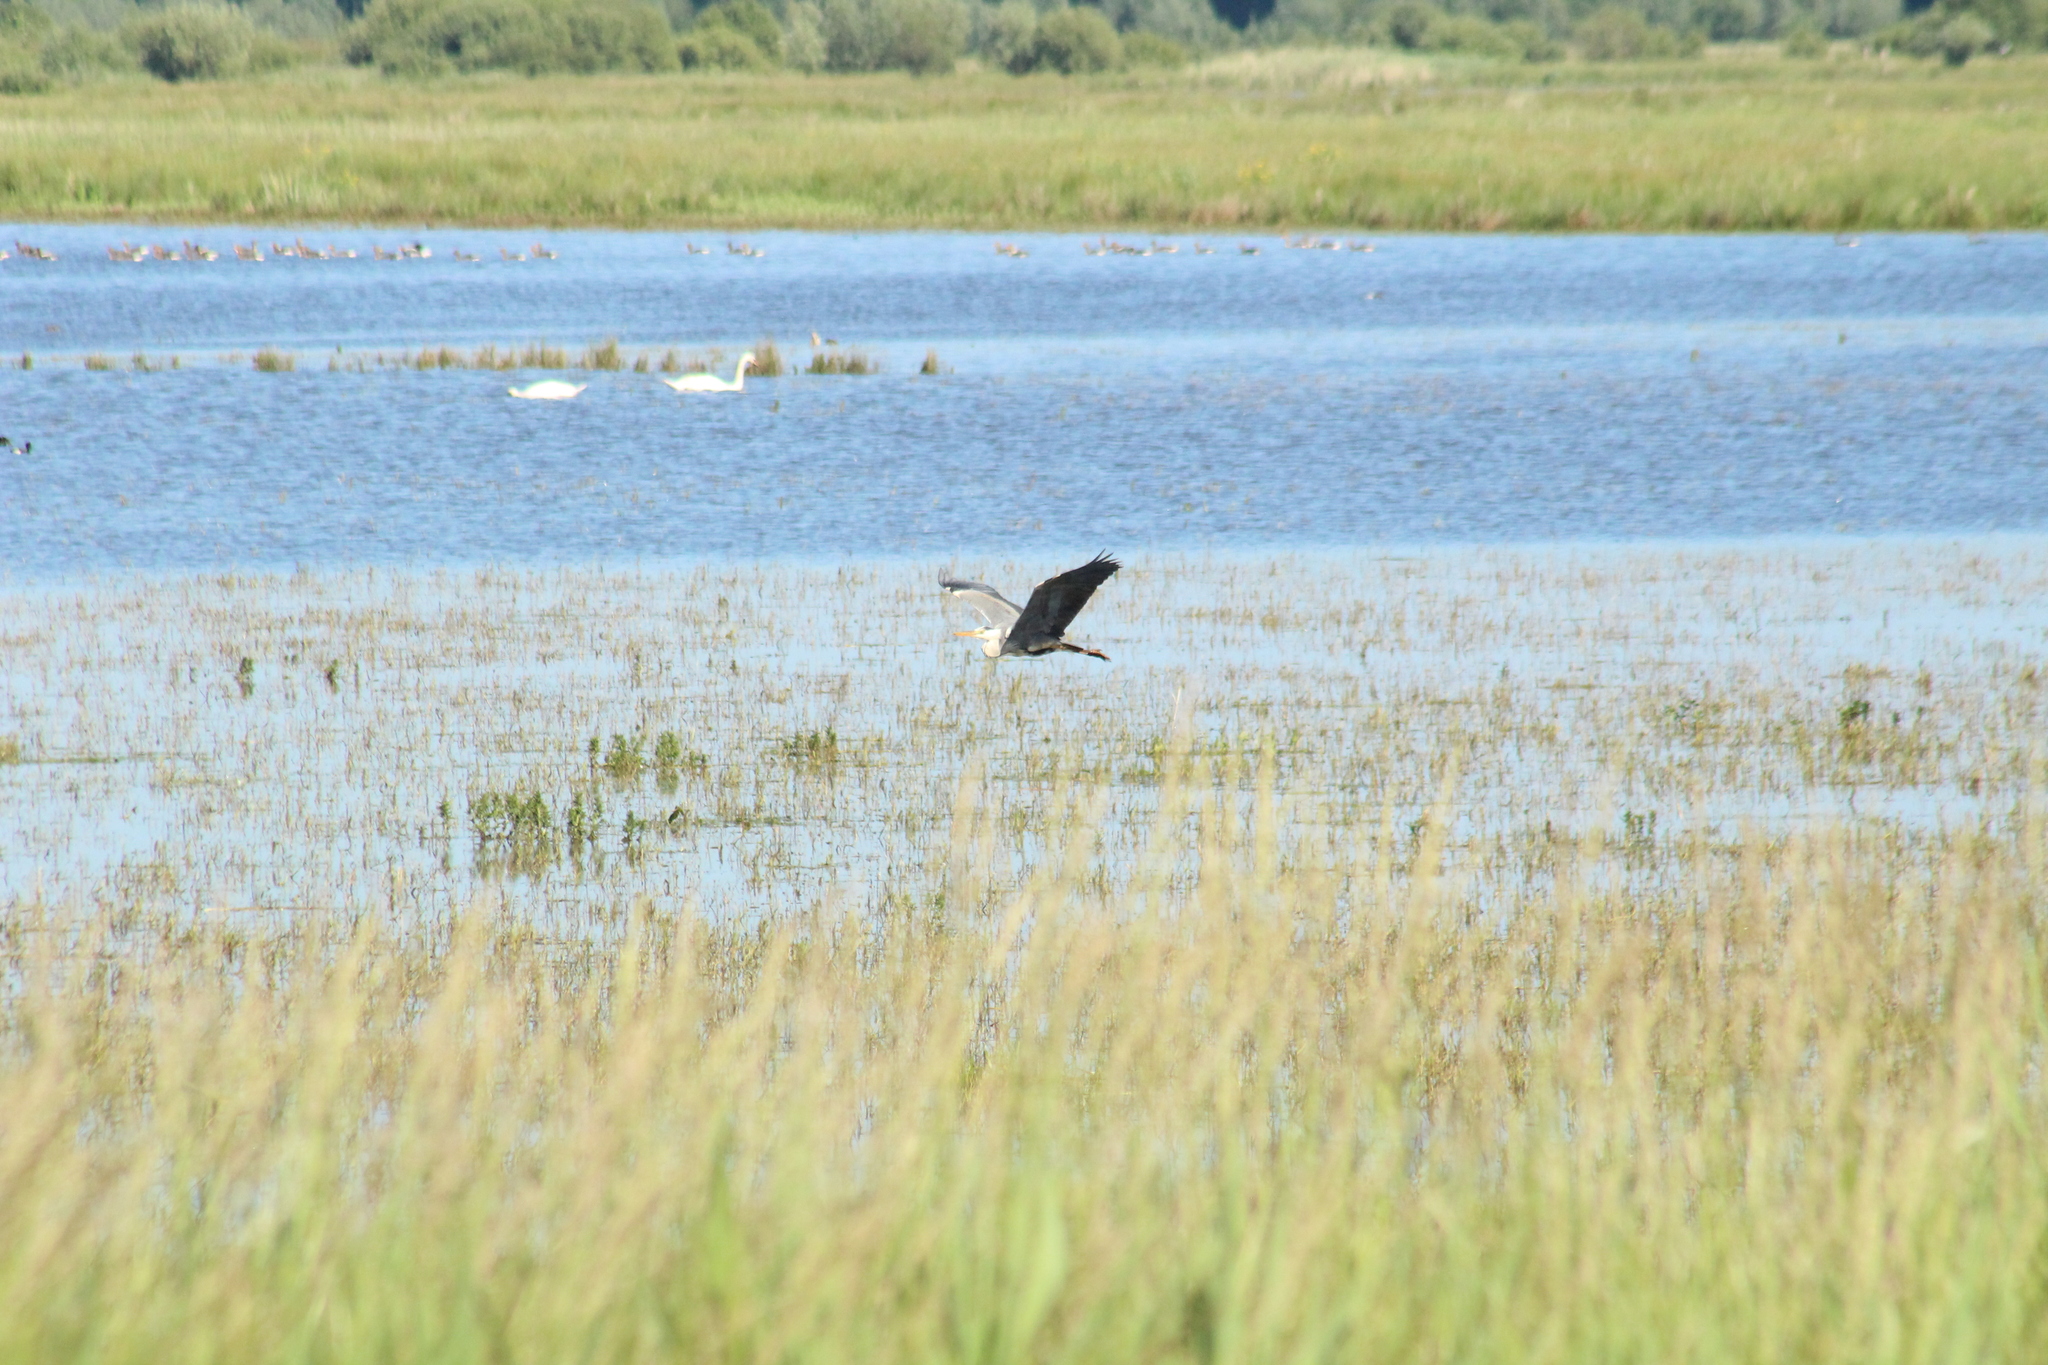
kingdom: Animalia
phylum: Chordata
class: Aves
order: Pelecaniformes
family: Ardeidae
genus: Ardea
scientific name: Ardea cinerea
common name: Grey heron
